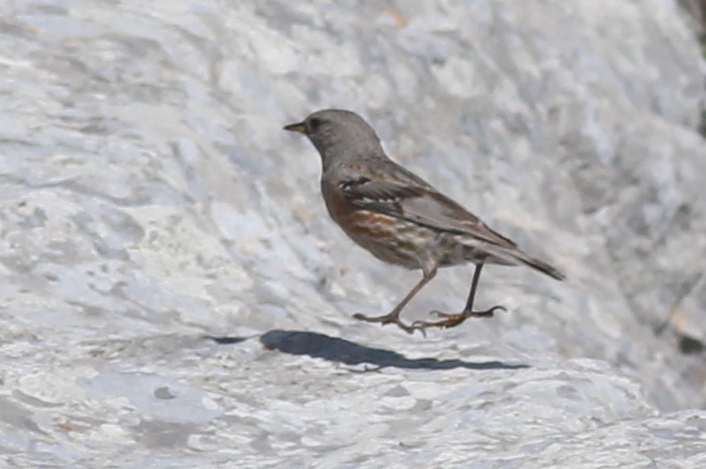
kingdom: Animalia
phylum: Chordata
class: Aves
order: Passeriformes
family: Prunellidae
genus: Prunella
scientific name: Prunella collaris
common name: Alpine accentor
